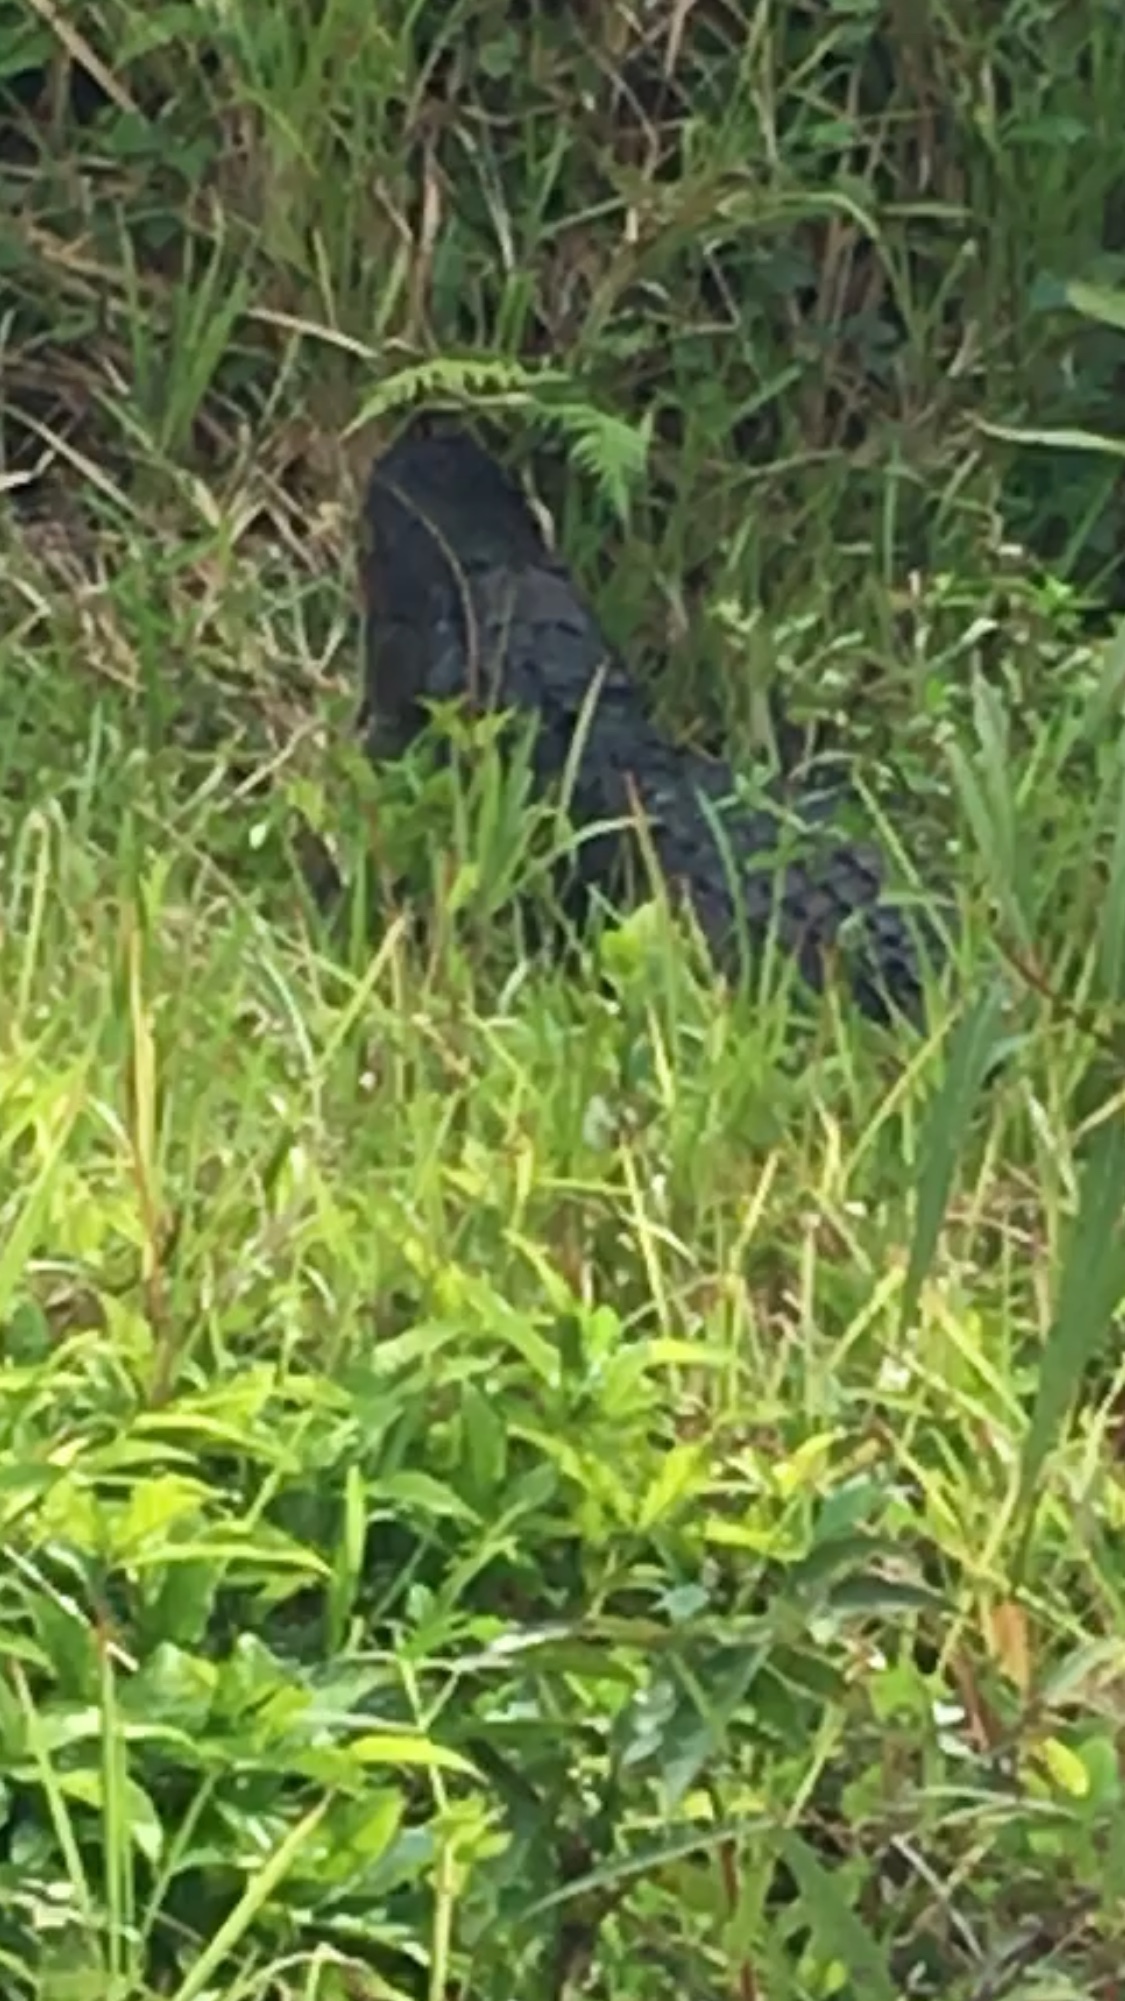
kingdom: Animalia
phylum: Chordata
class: Crocodylia
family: Alligatoridae
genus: Alligator
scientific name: Alligator mississippiensis
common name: American alligator
